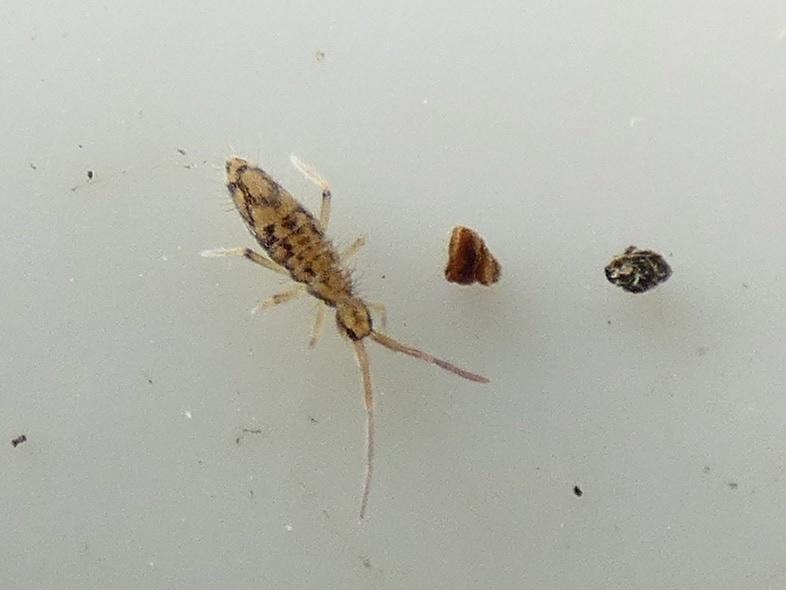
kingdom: Animalia
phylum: Arthropoda
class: Collembola
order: Entomobryomorpha
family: Entomobryidae
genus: Entomobrya
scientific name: Entomobrya intermedia
